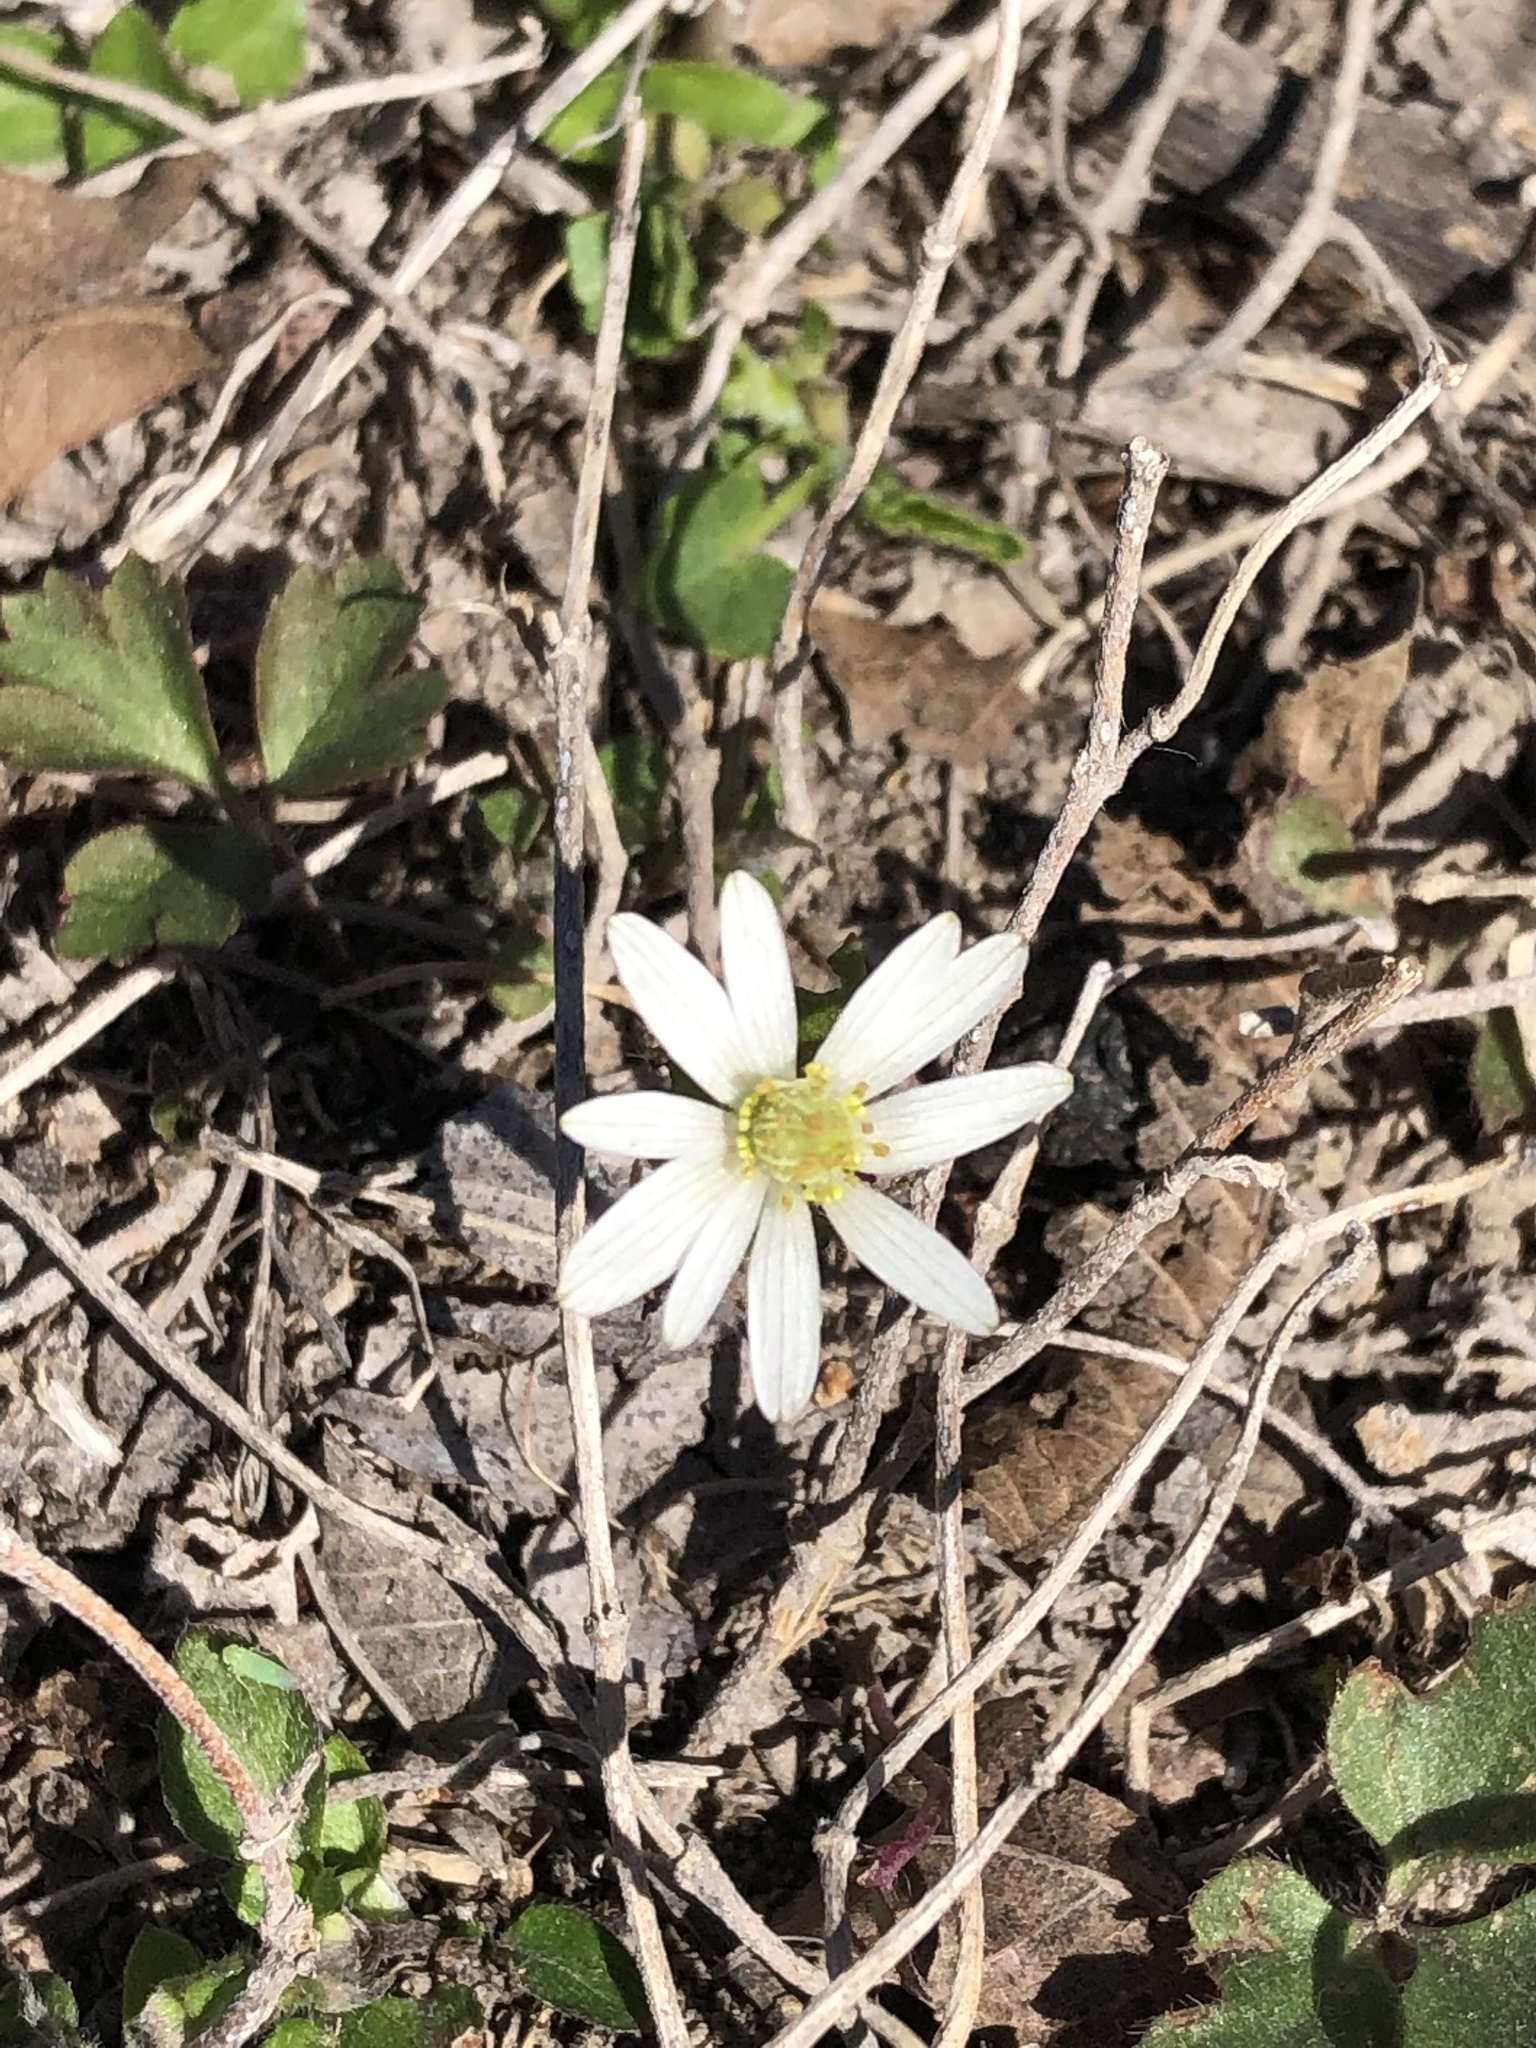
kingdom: Plantae
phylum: Tracheophyta
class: Magnoliopsida
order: Ranunculales
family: Ranunculaceae
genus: Anemone
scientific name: Anemone berlandieri
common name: Ten-petal anemone
